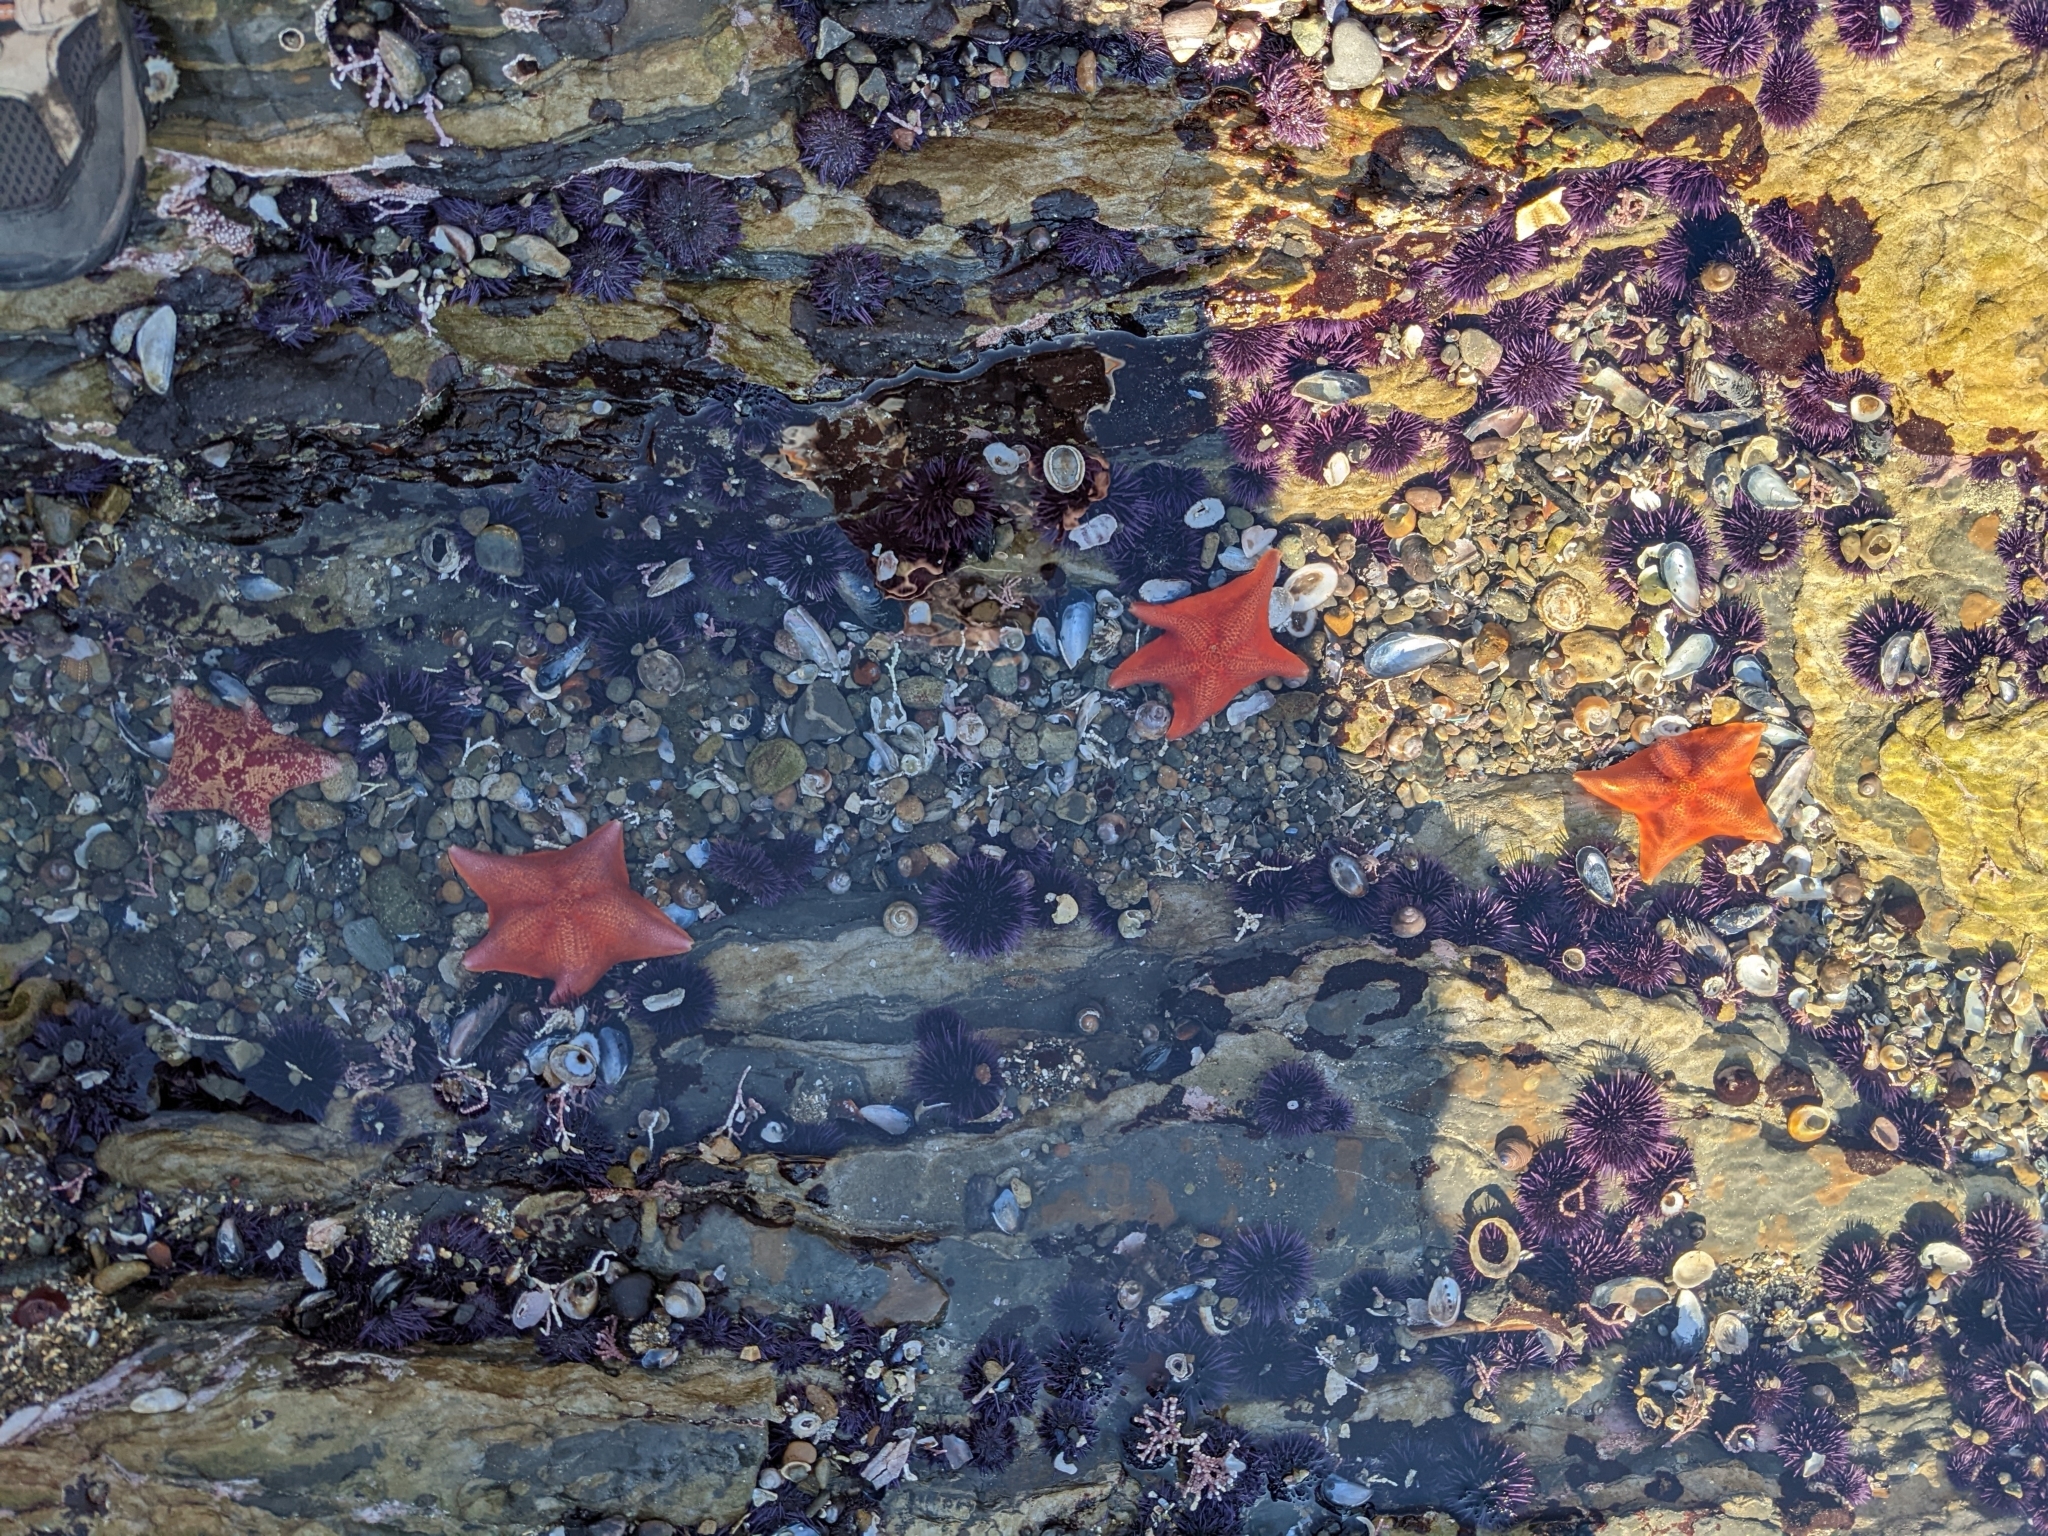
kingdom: Animalia
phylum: Echinodermata
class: Asteroidea
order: Valvatida
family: Asterinidae
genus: Patiria
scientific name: Patiria miniata
